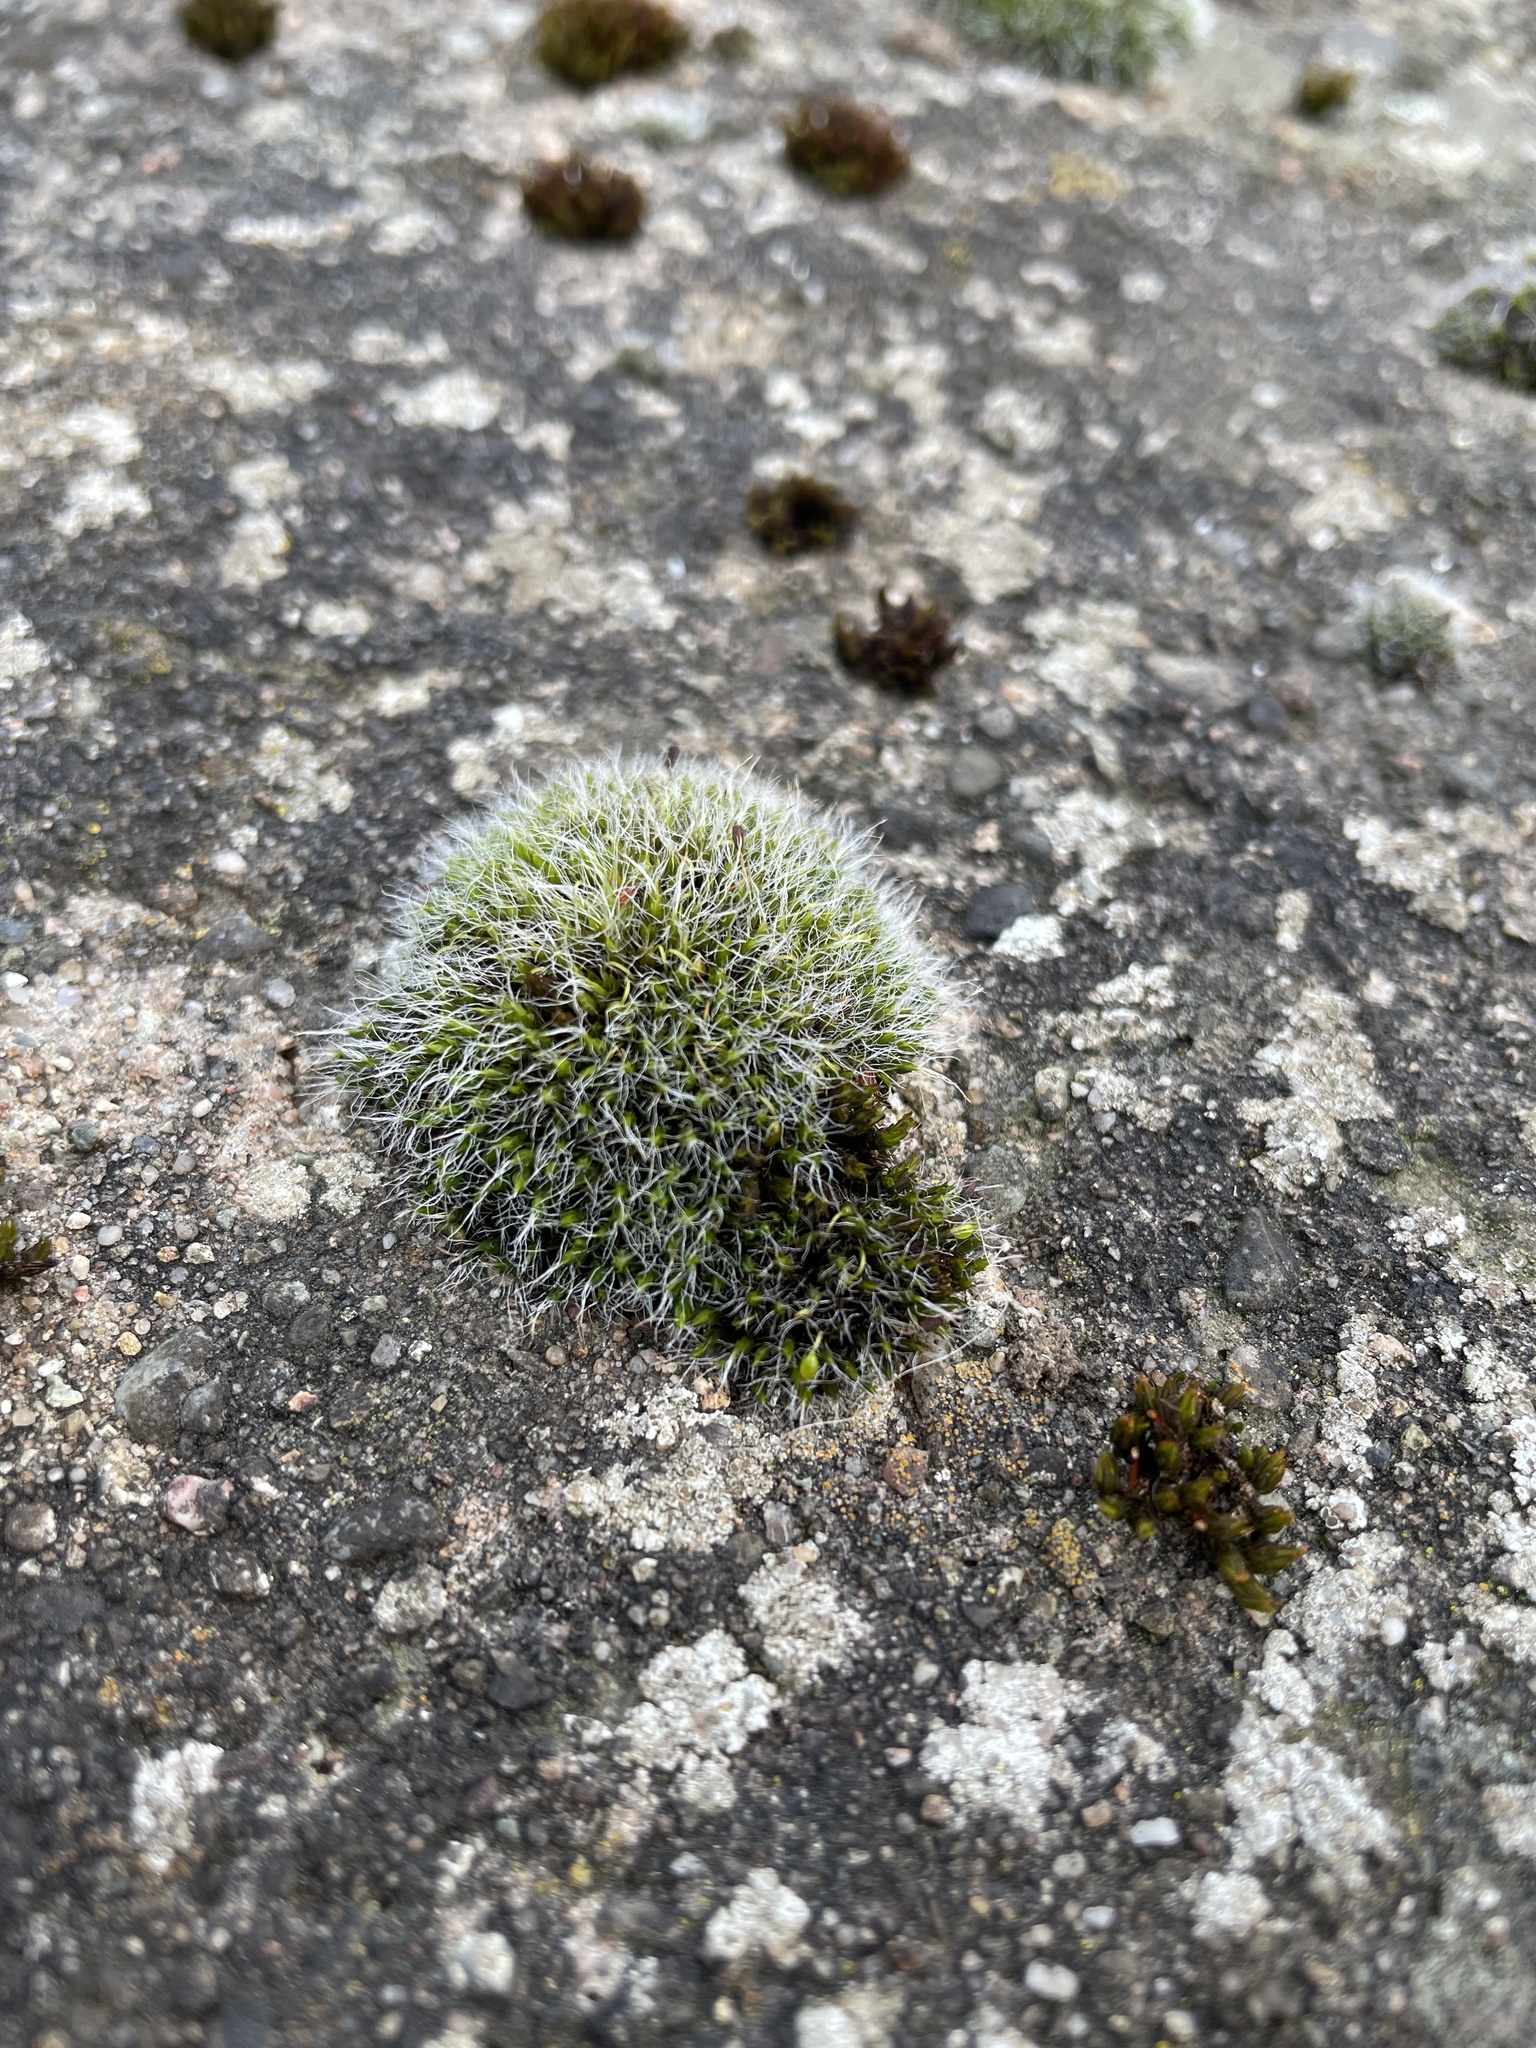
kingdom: Plantae
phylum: Bryophyta
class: Bryopsida
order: Grimmiales
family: Grimmiaceae
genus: Grimmia
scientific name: Grimmia pulvinata
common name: Grey-cushioned grimmia
